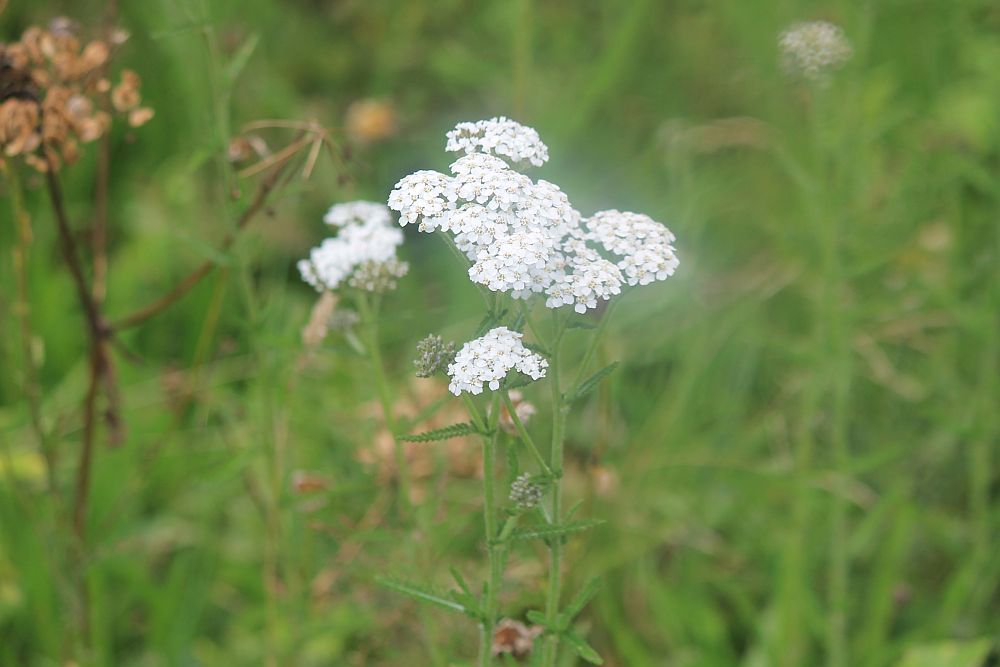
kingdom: Plantae
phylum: Tracheophyta
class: Magnoliopsida
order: Asterales
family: Asteraceae
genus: Achillea
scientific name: Achillea millefolium
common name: Yarrow
